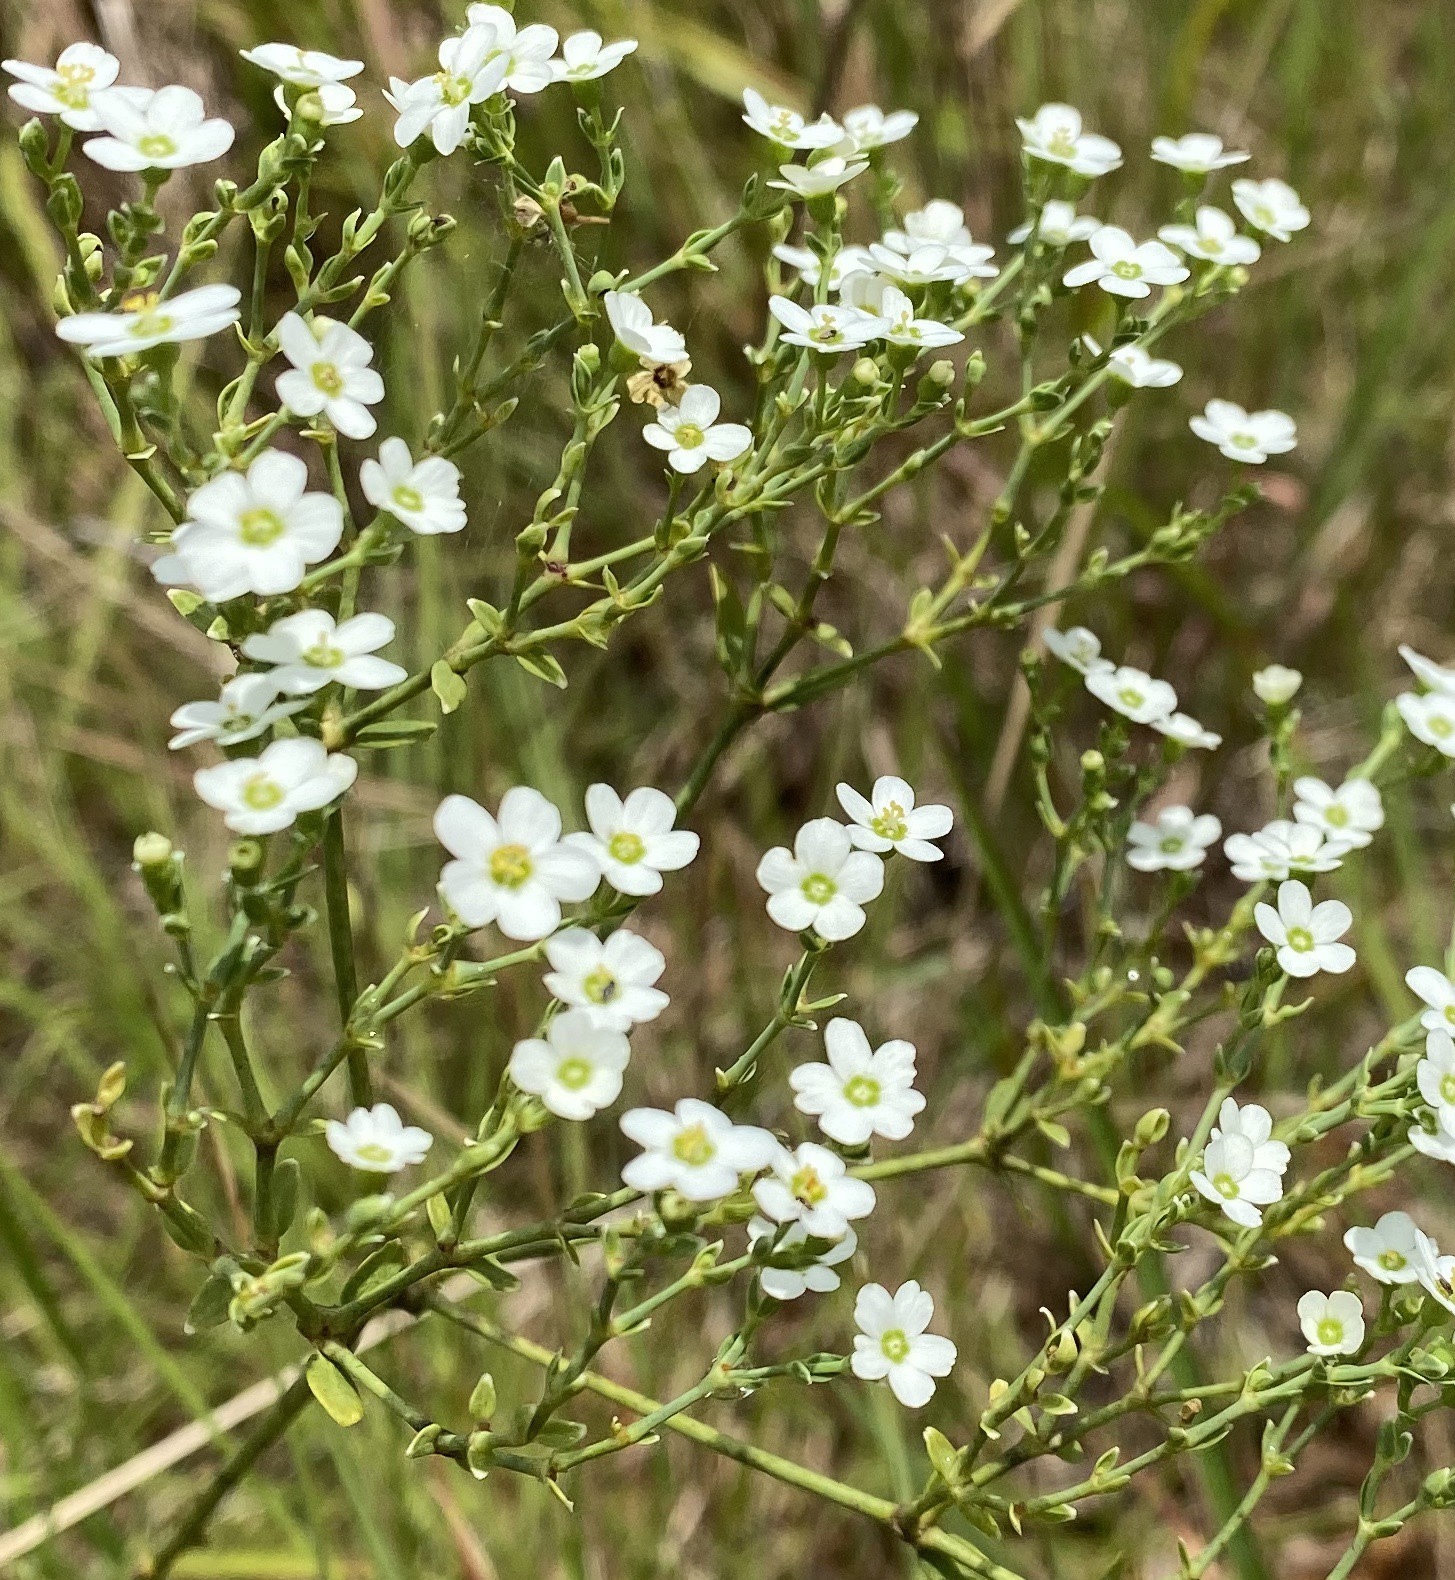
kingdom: Plantae
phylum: Tracheophyta
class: Magnoliopsida
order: Malpighiales
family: Euphorbiaceae
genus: Euphorbia
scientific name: Euphorbia corollata
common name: Flowering spurge
